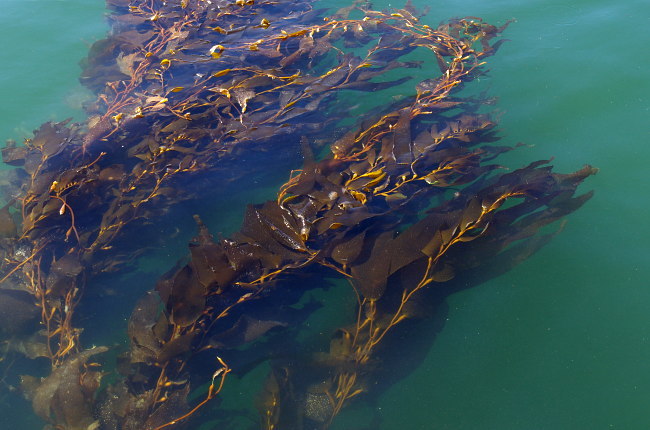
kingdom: Chromista
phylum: Ochrophyta
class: Phaeophyceae
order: Laminariales
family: Laminariaceae
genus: Macrocystis
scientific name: Macrocystis pyrifera
